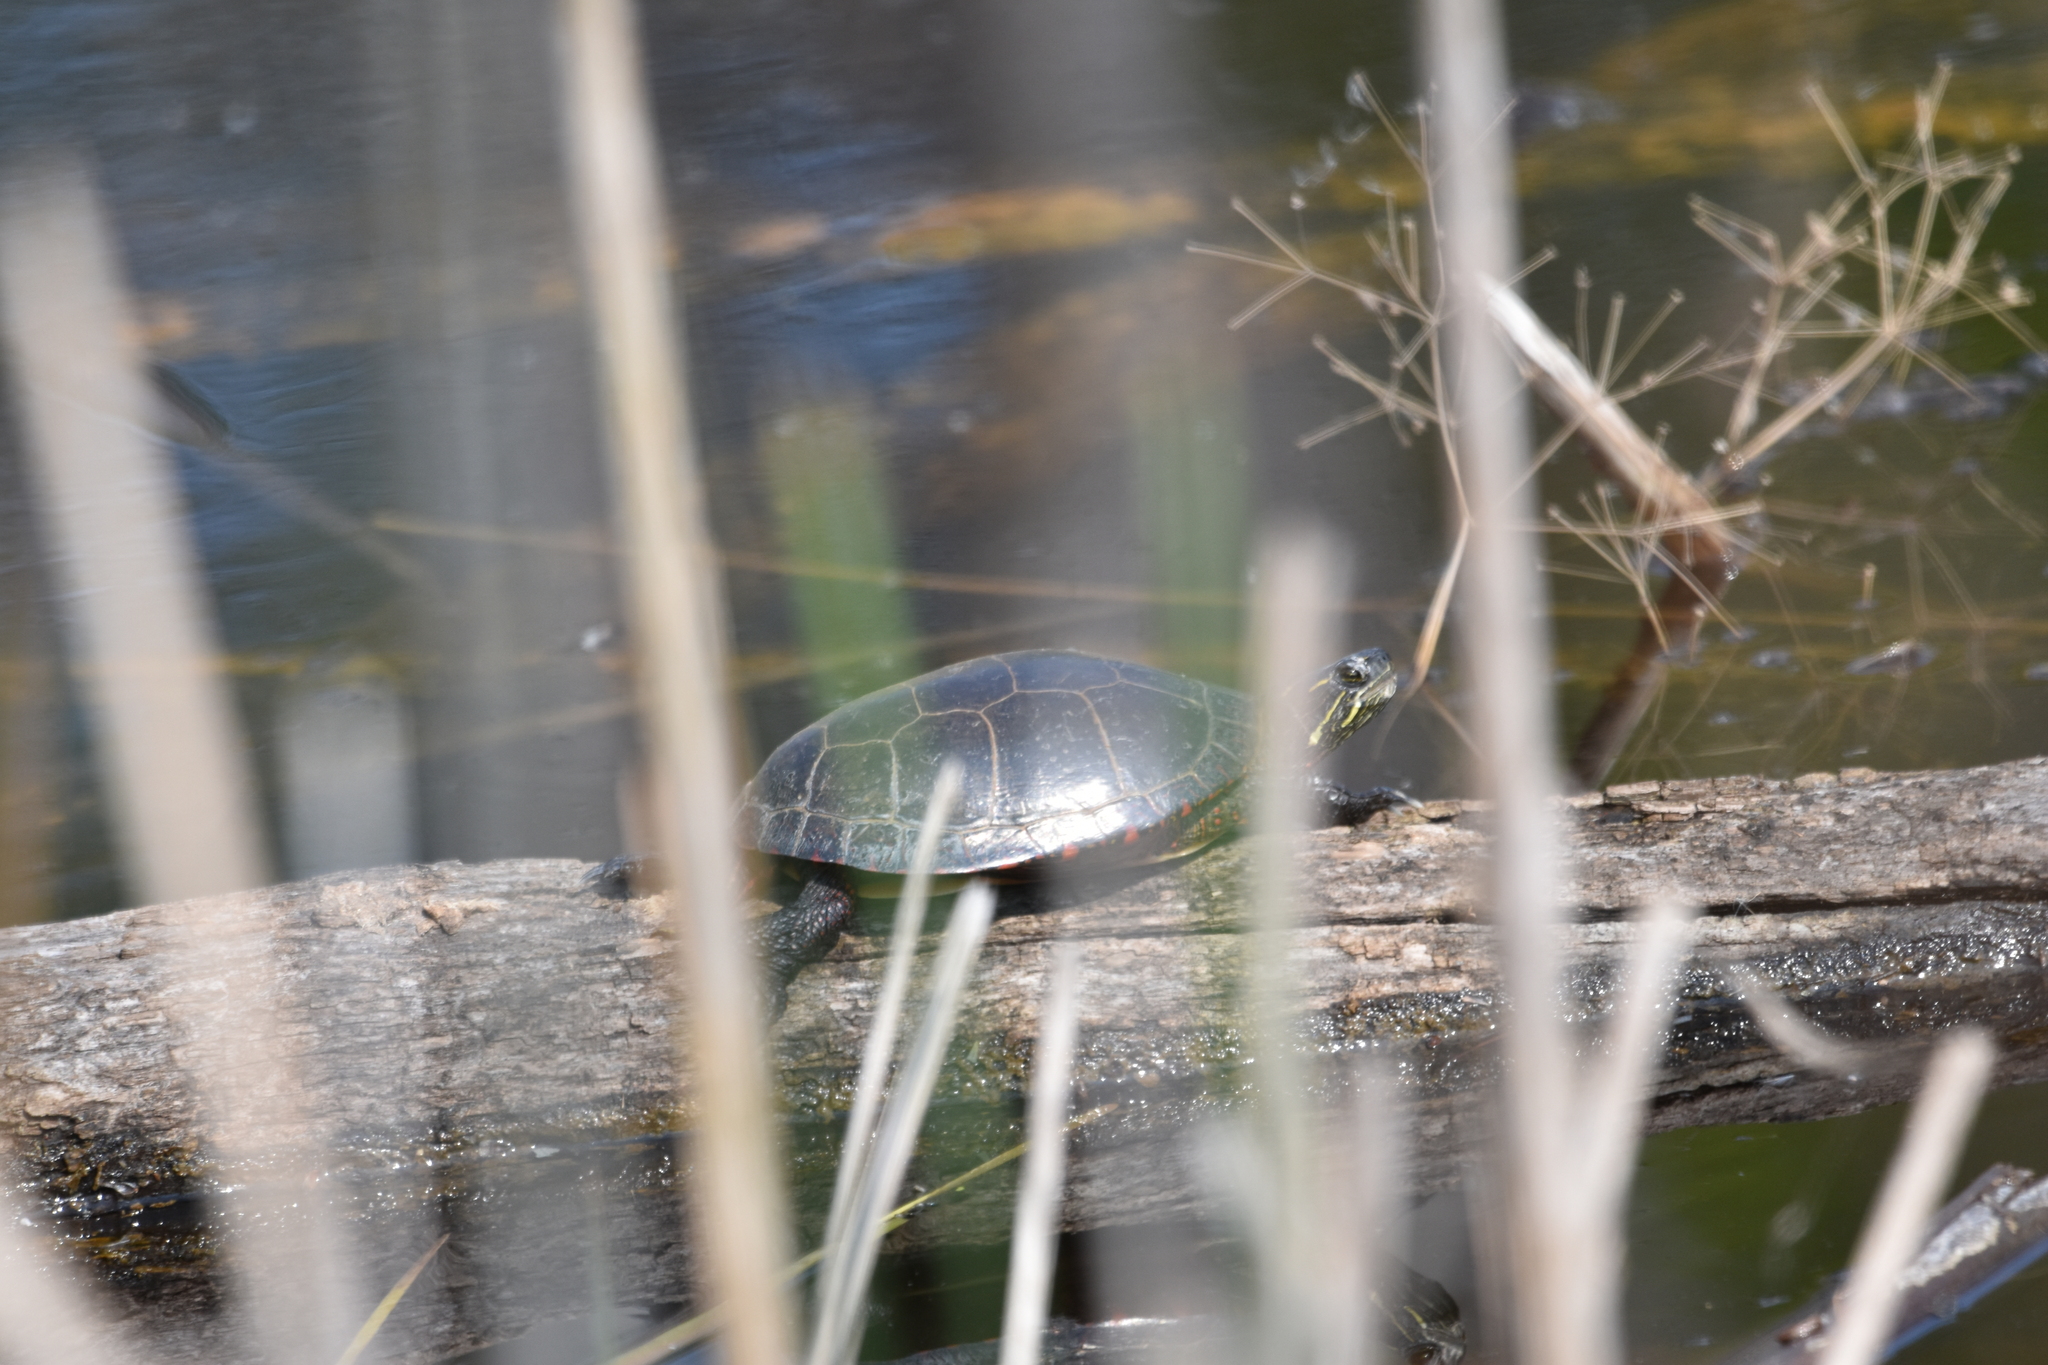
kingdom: Animalia
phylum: Chordata
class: Testudines
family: Emydidae
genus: Chrysemys
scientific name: Chrysemys picta
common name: Painted turtle
